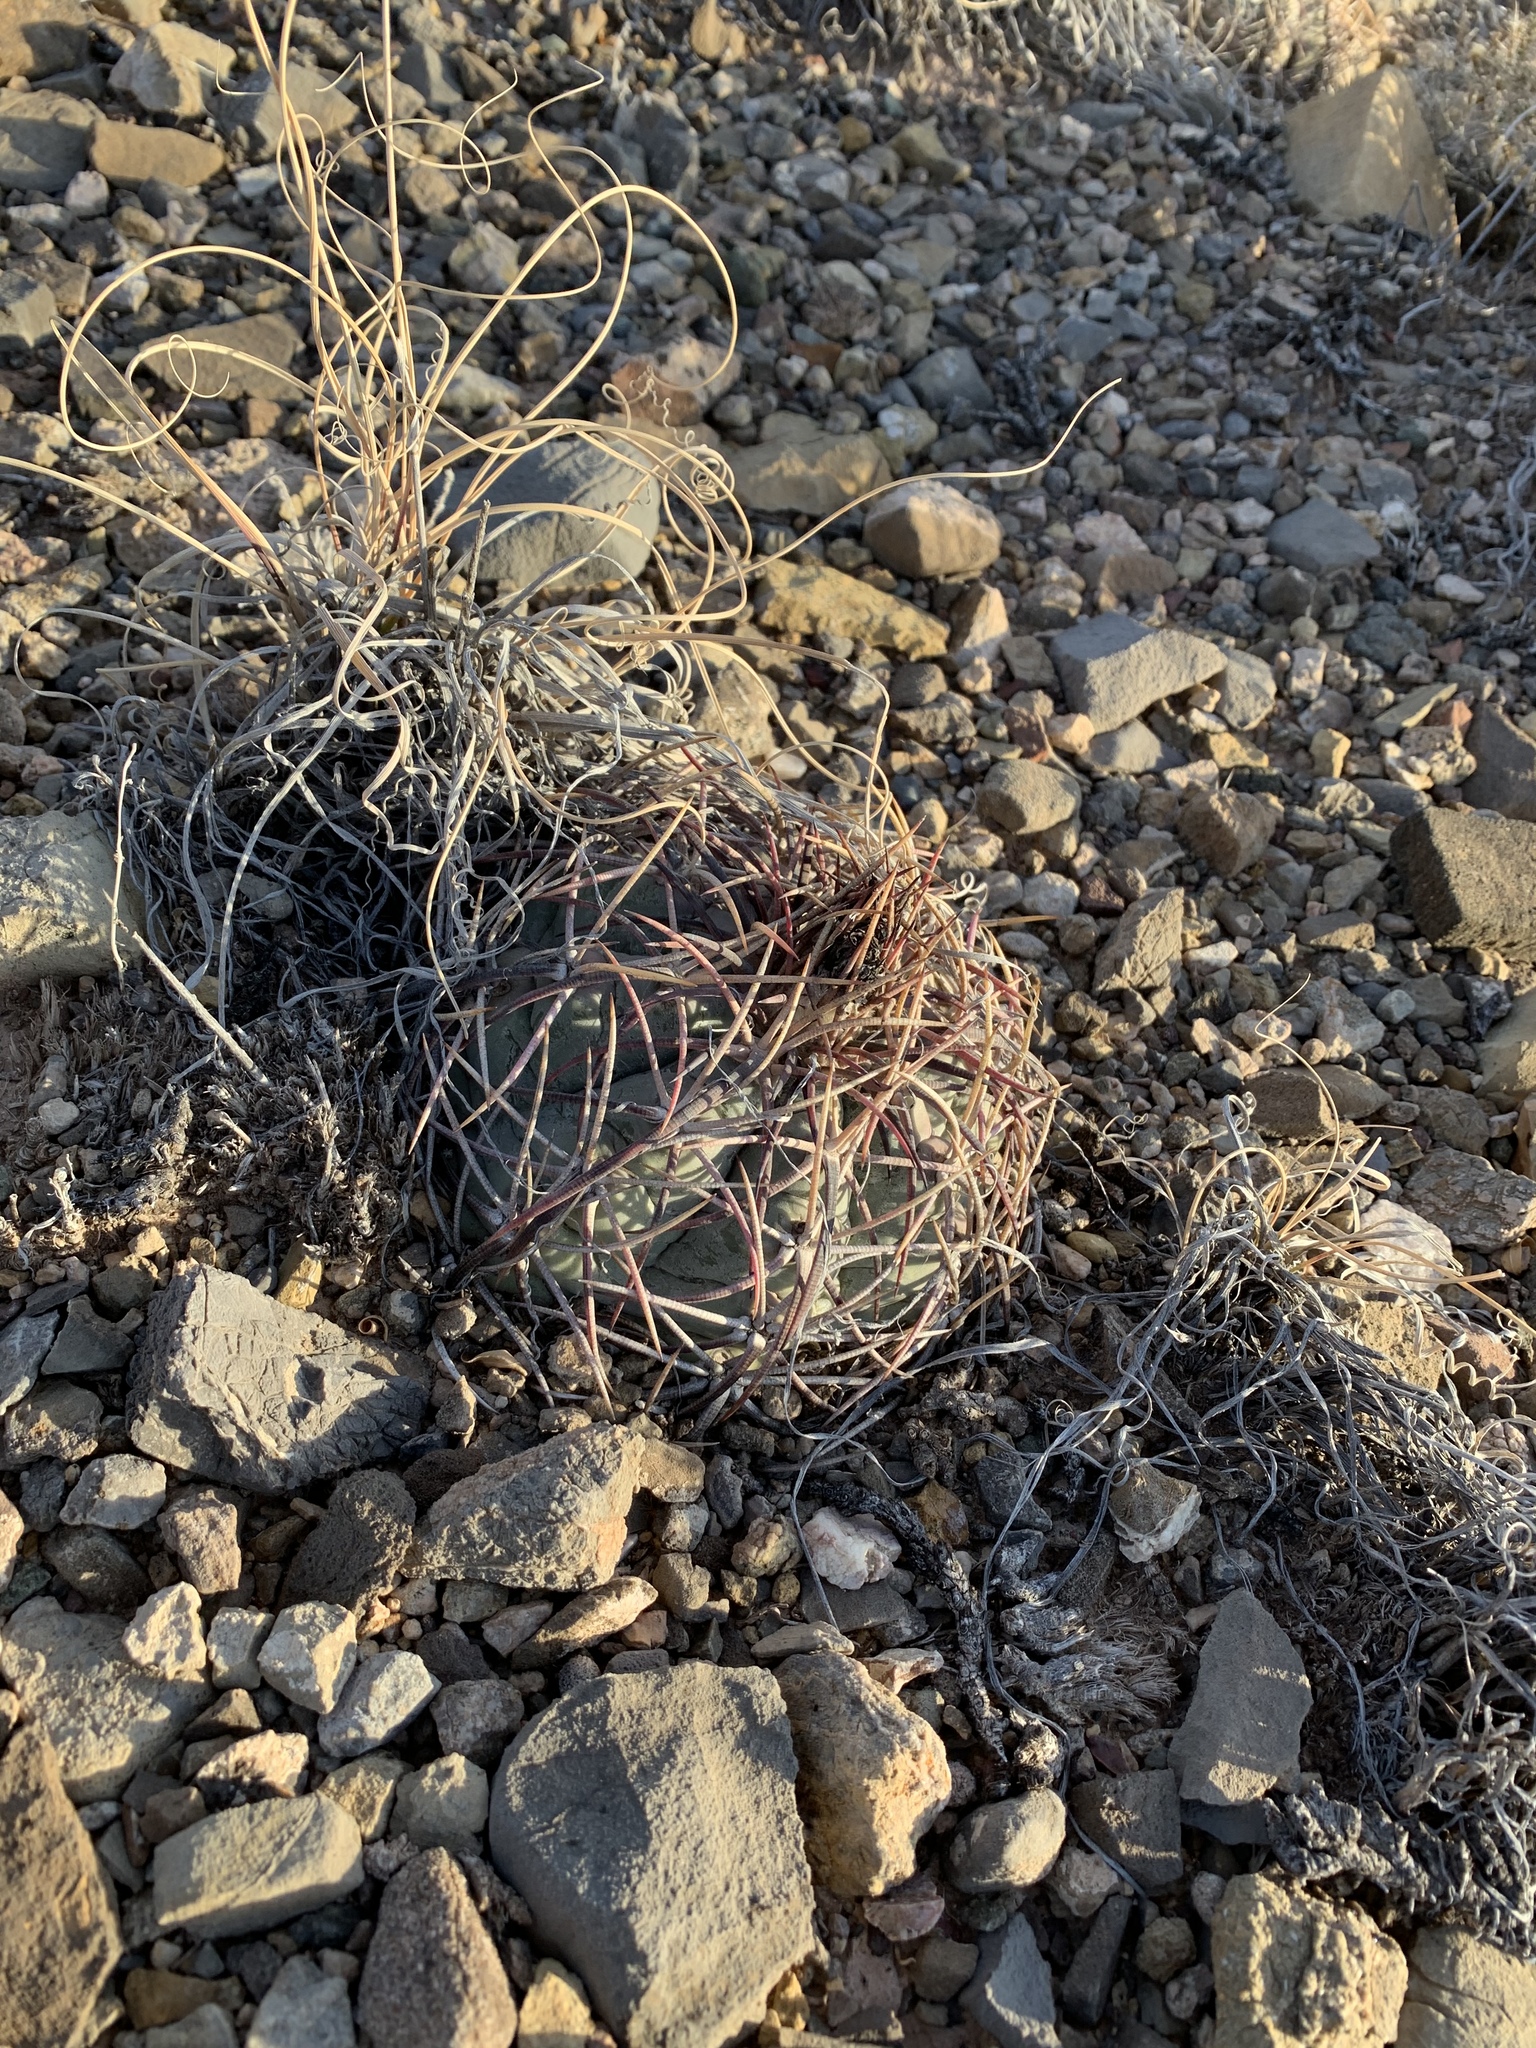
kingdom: Plantae
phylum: Tracheophyta
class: Magnoliopsida
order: Caryophyllales
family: Cactaceae
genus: Echinocactus
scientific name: Echinocactus horizonthalonius
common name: Devilshead
